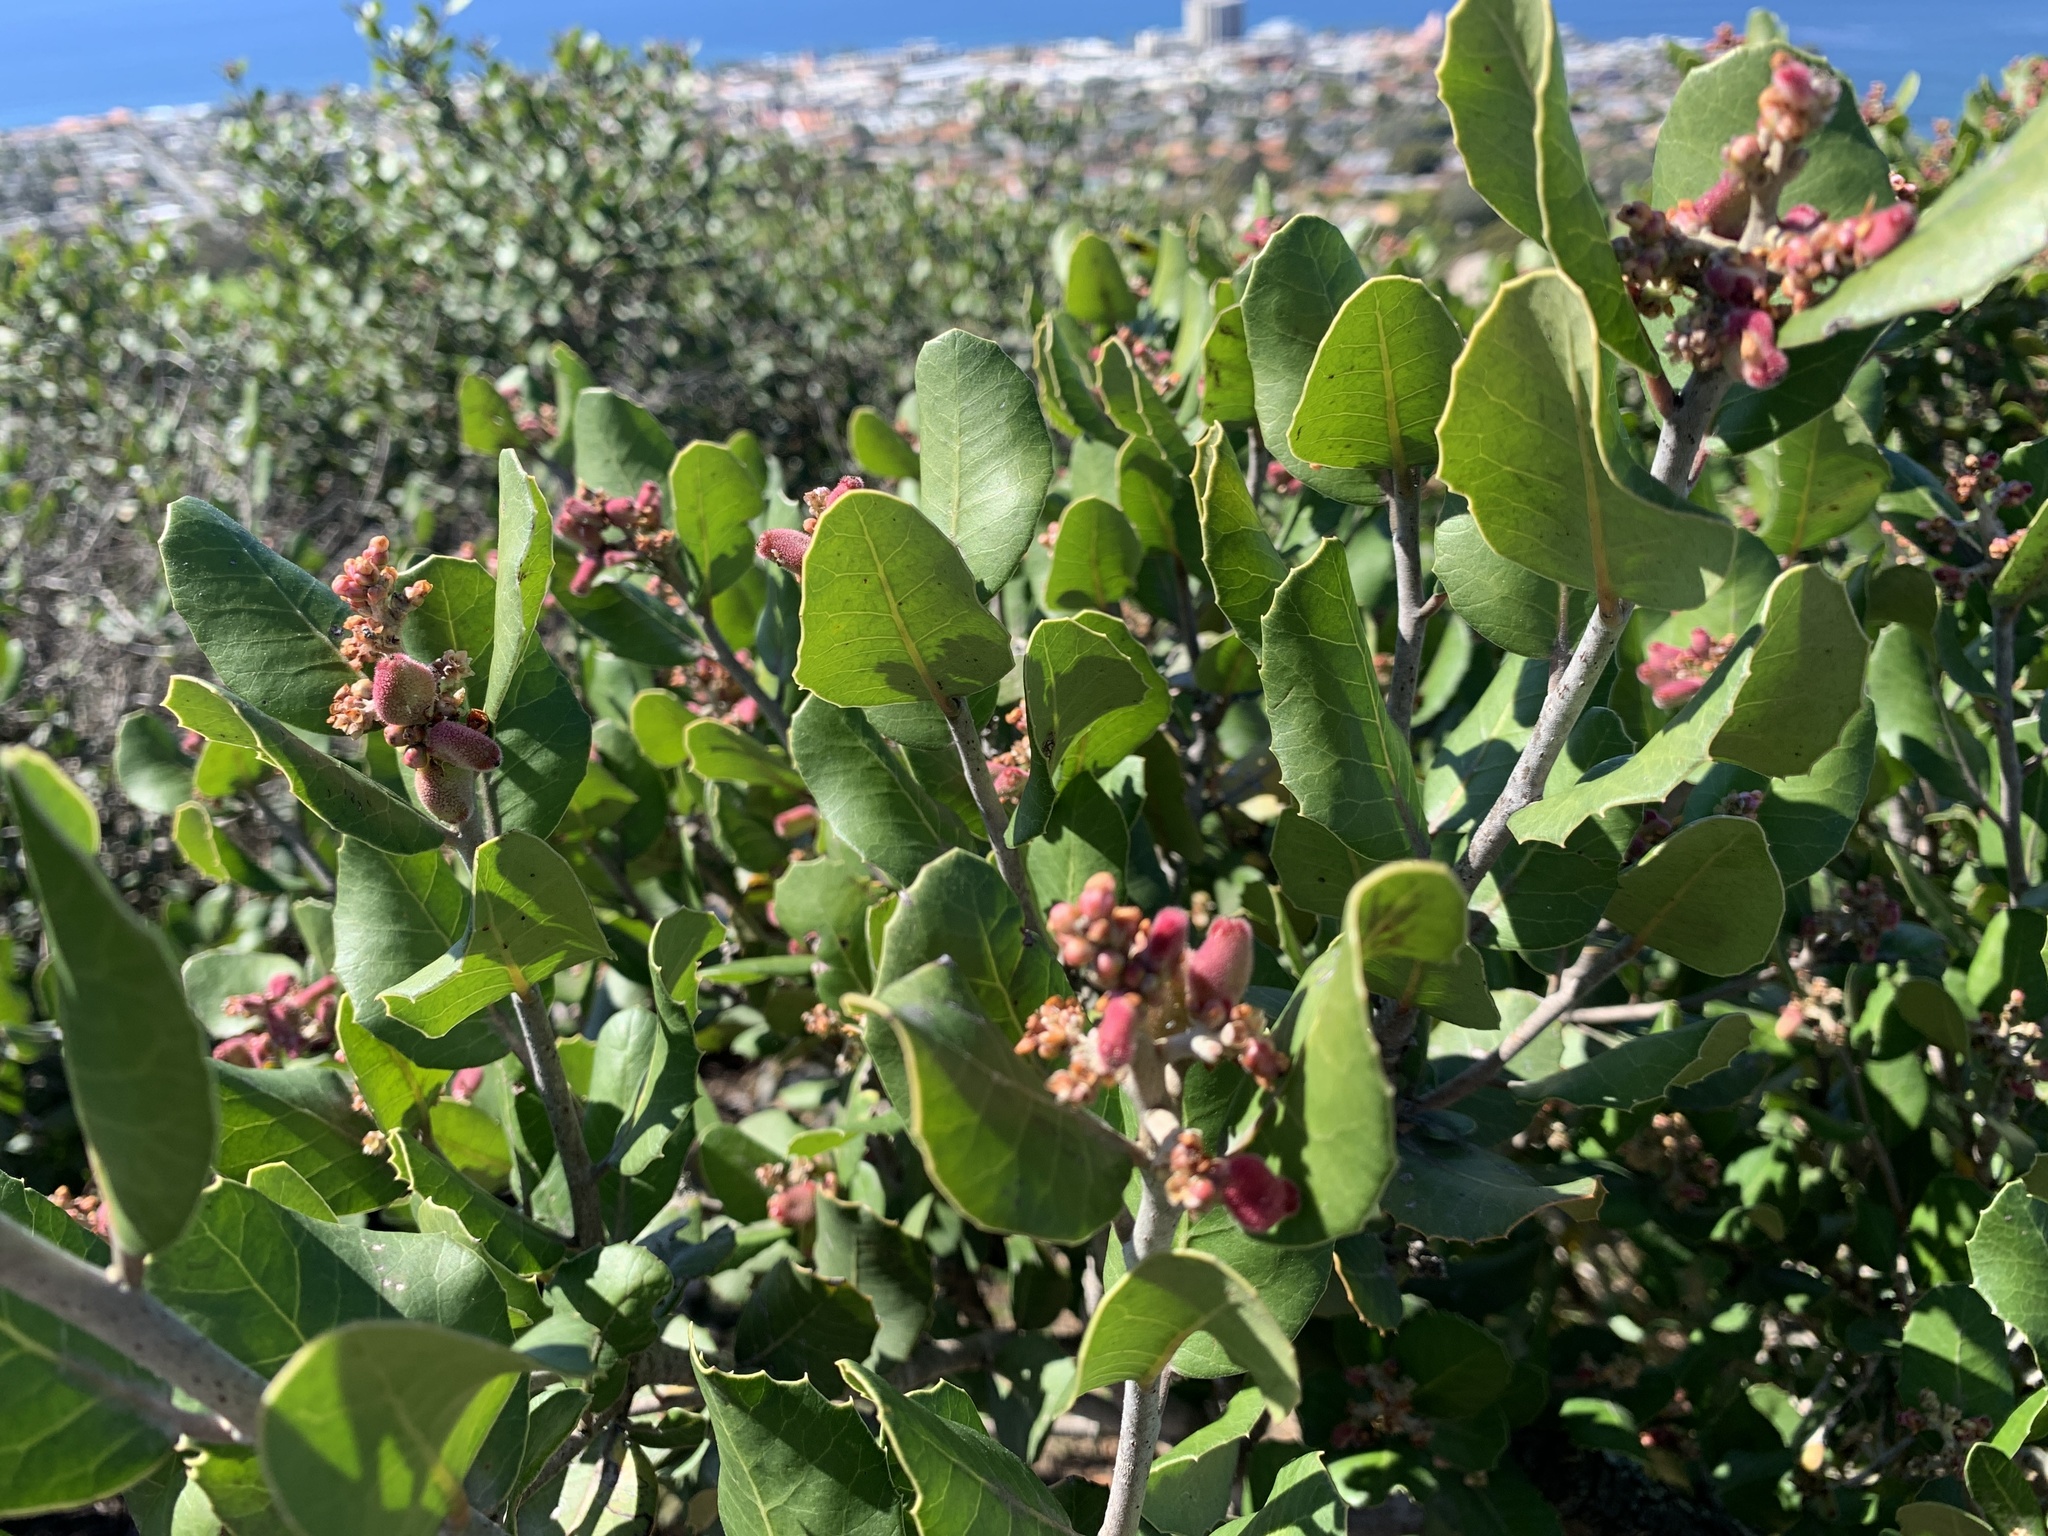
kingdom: Plantae
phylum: Tracheophyta
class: Magnoliopsida
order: Sapindales
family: Anacardiaceae
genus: Rhus
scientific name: Rhus integrifolia
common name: Lemonade sumac
